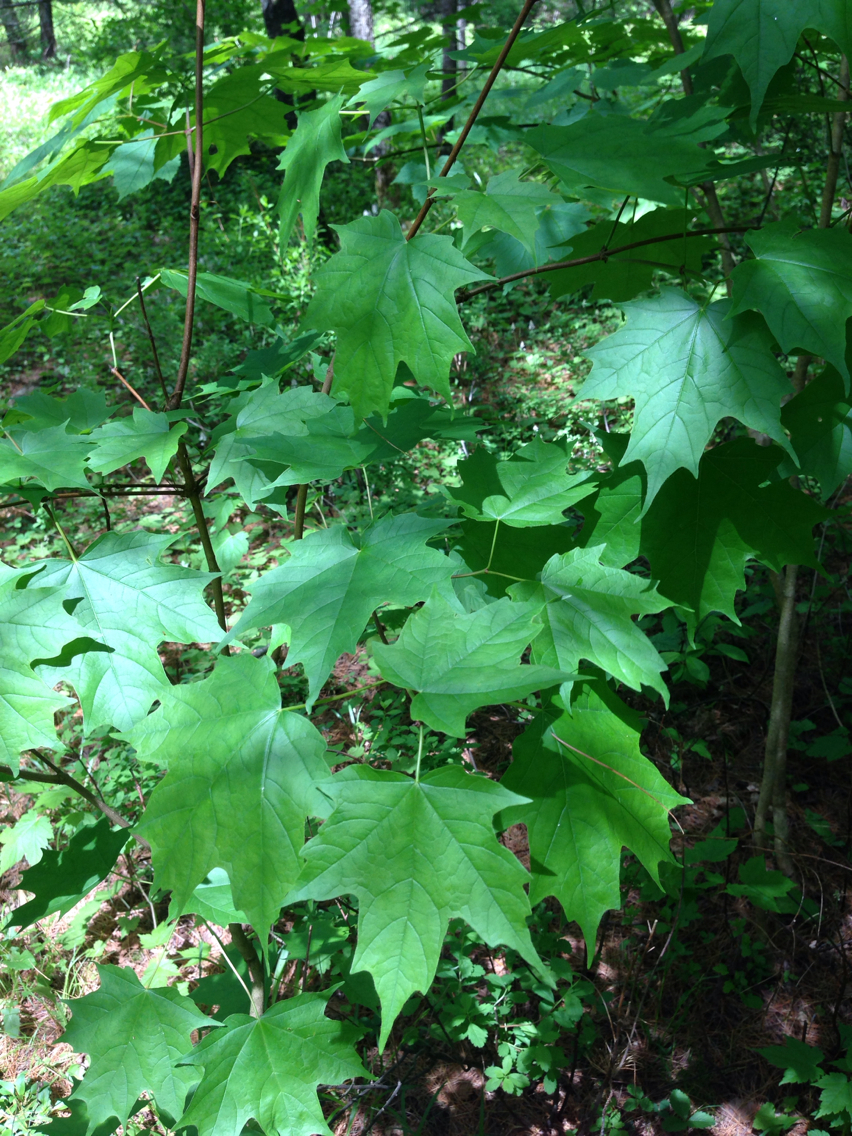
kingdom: Plantae
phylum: Tracheophyta
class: Magnoliopsida
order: Sapindales
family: Sapindaceae
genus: Acer
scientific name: Acer saccharum
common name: Sugar maple
